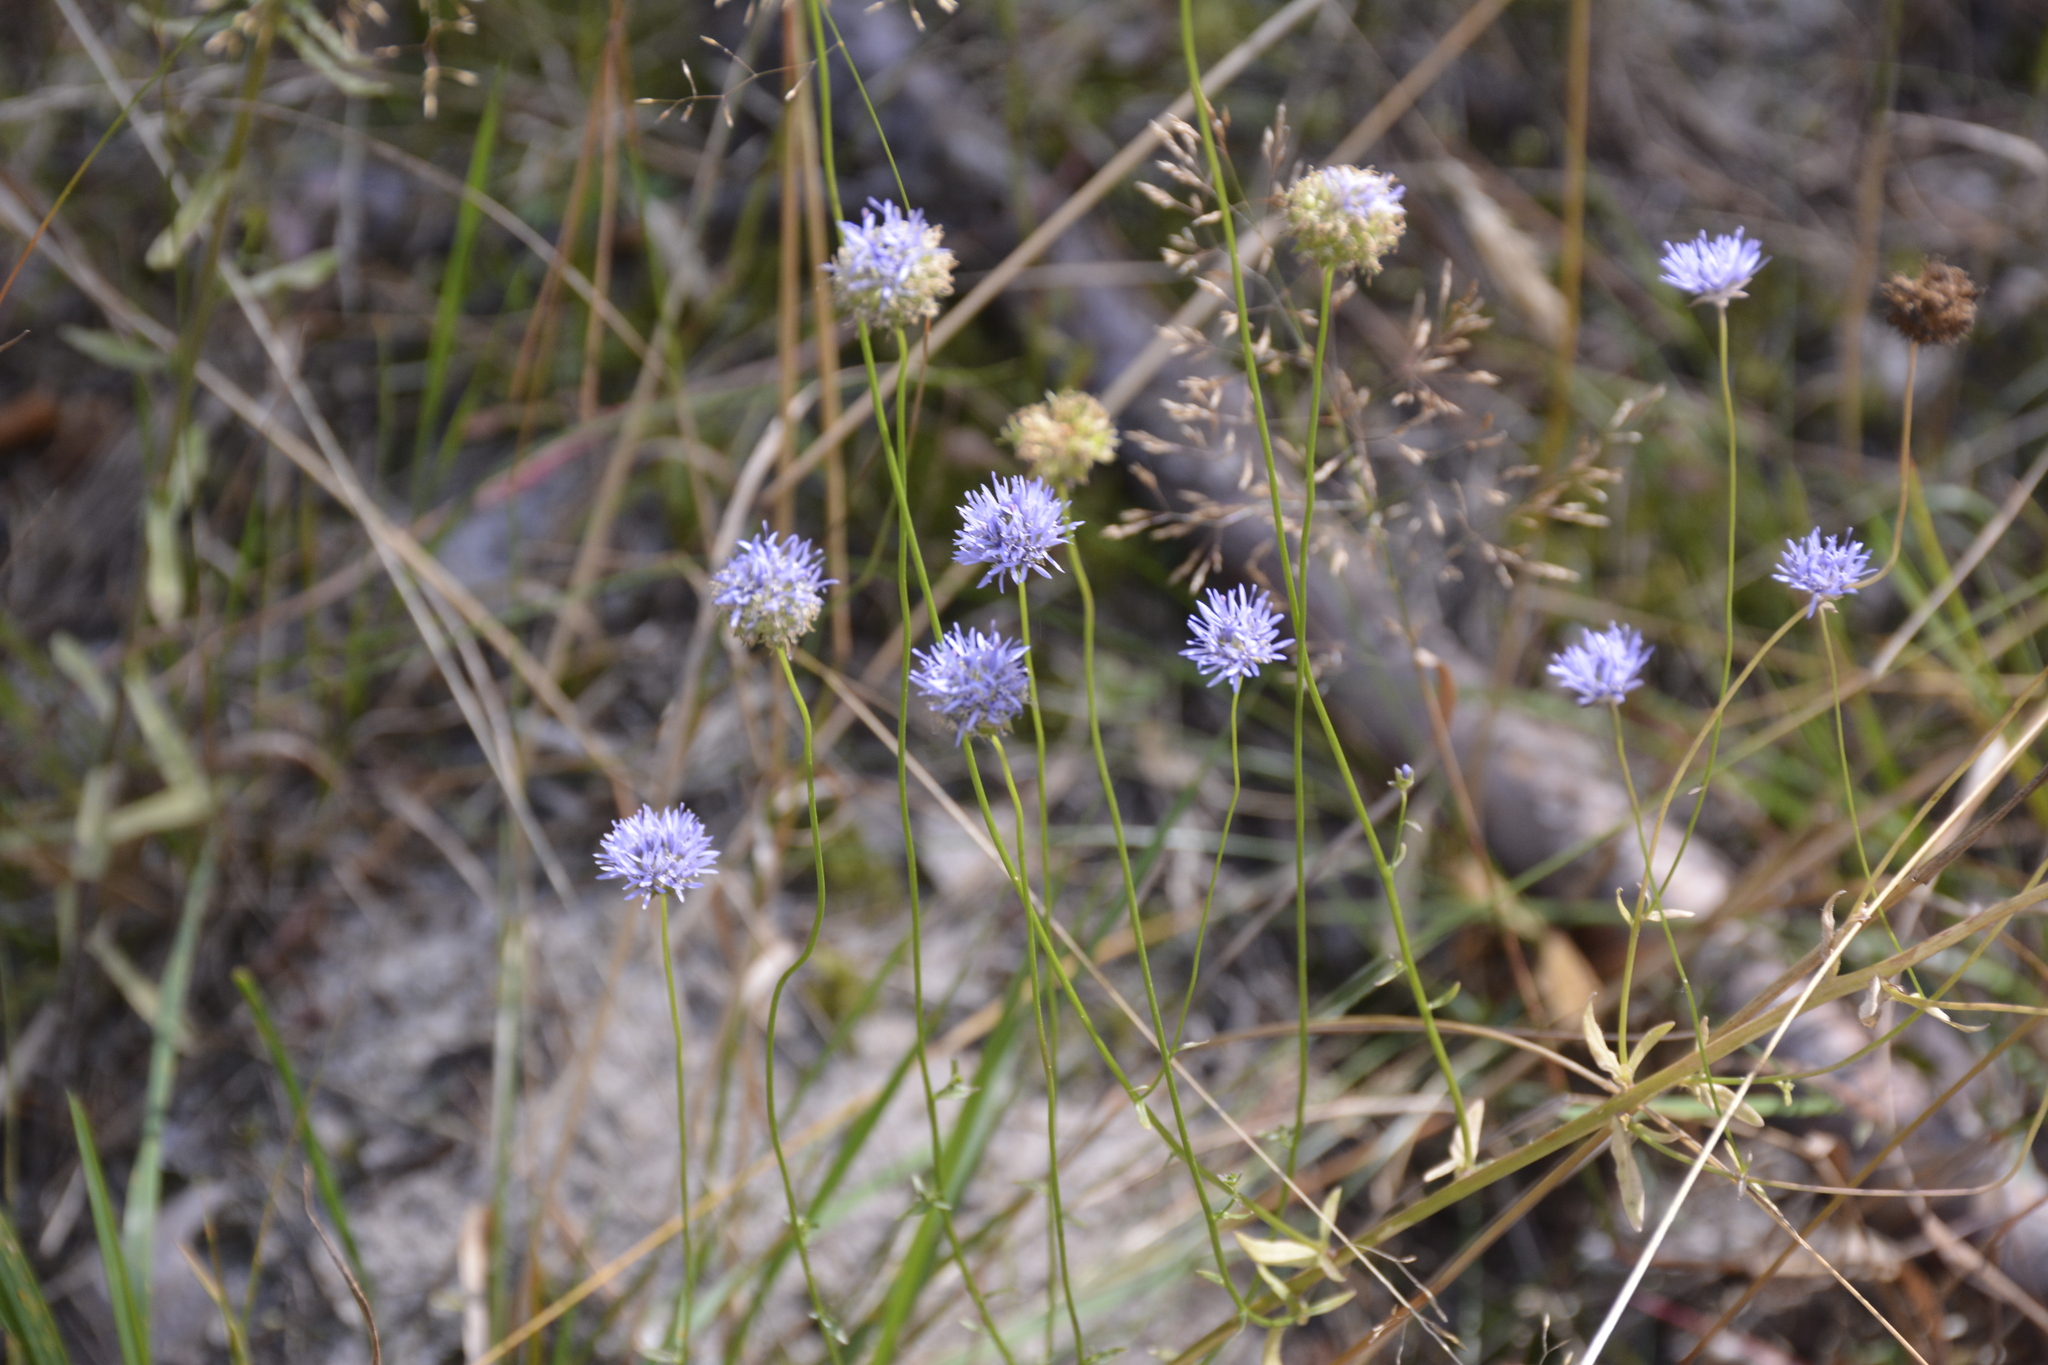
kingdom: Plantae
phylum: Tracheophyta
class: Magnoliopsida
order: Asterales
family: Campanulaceae
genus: Jasione
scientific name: Jasione montana
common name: Sheep's-bit
